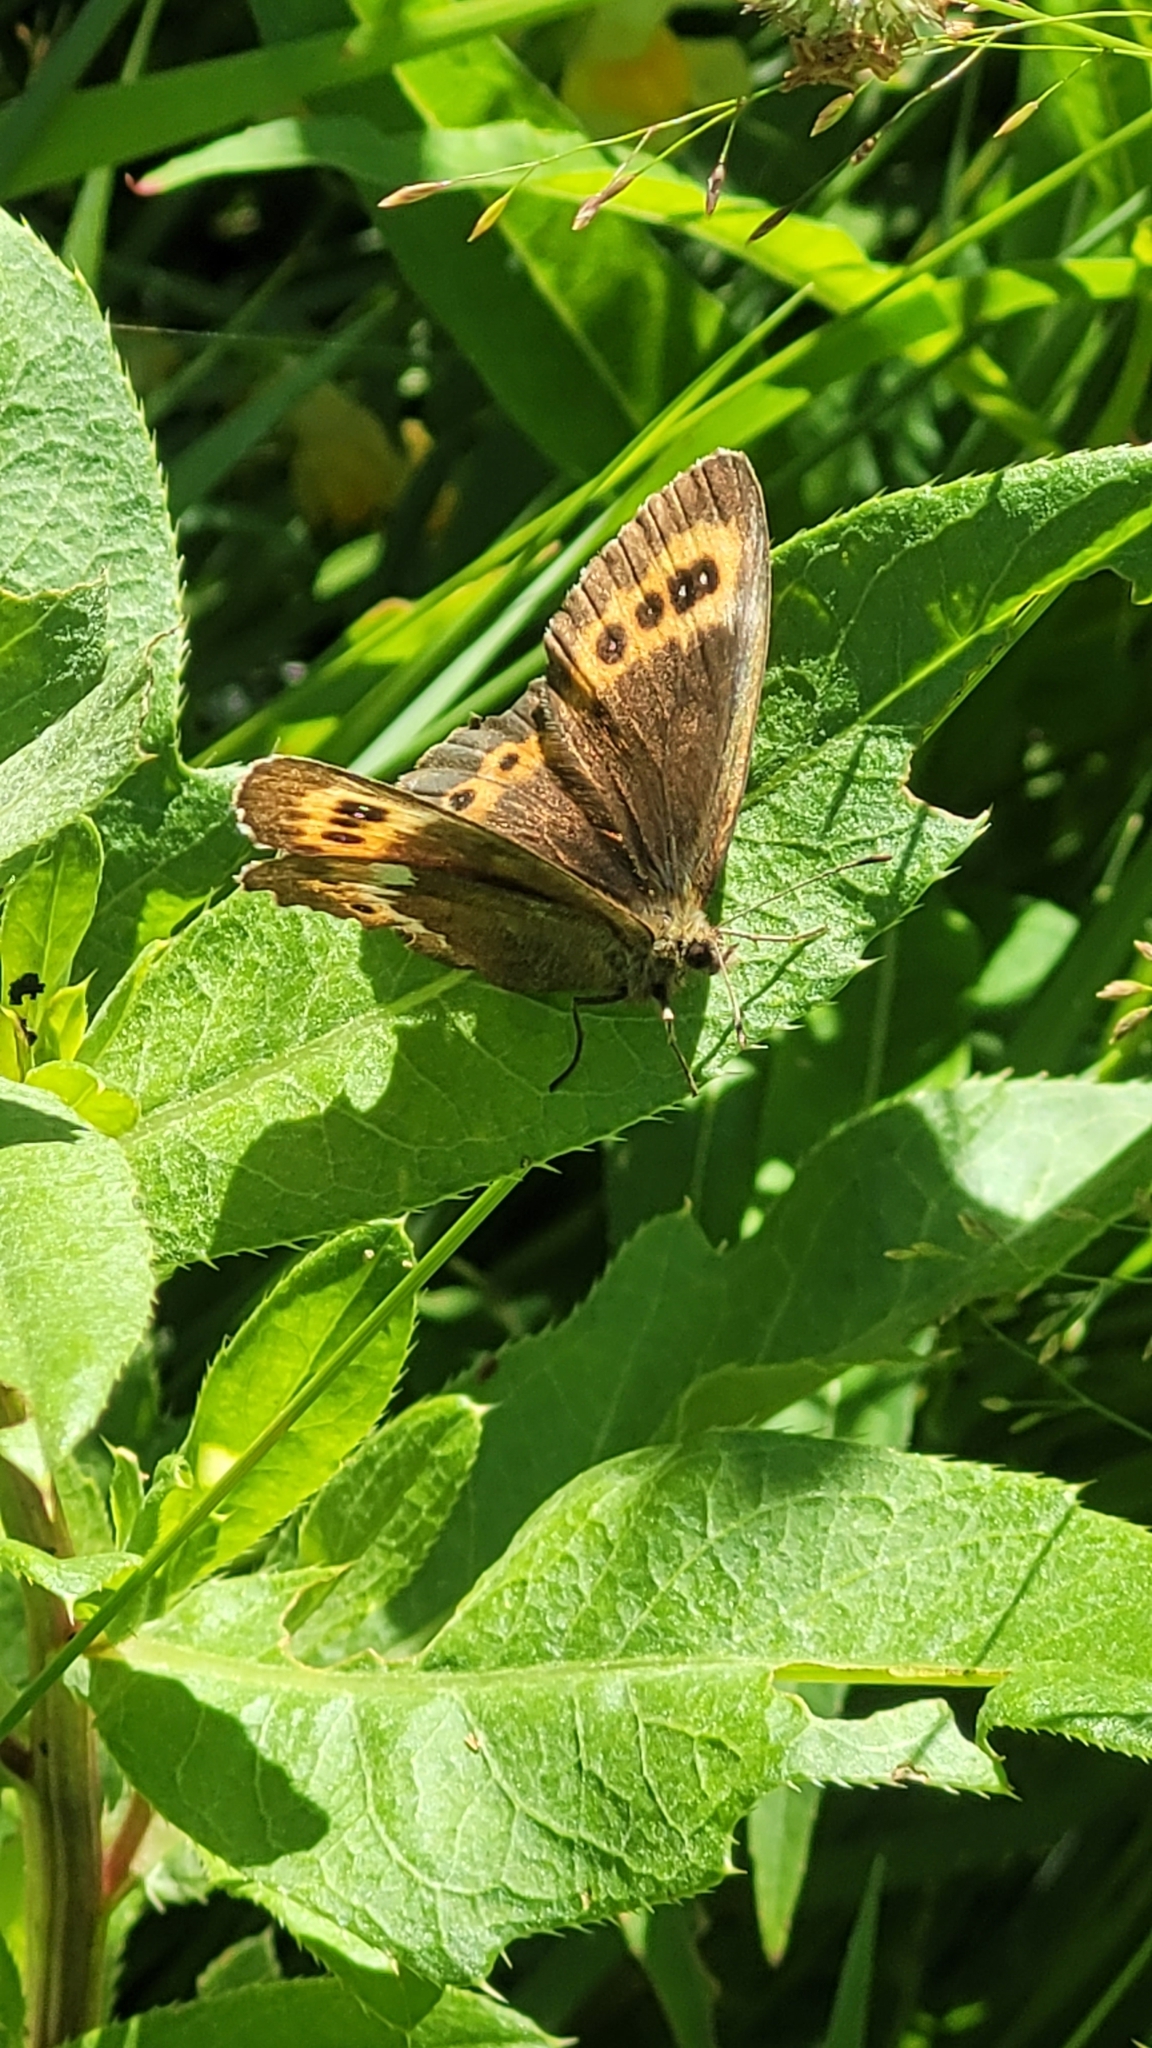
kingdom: Animalia
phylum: Arthropoda
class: Insecta
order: Lepidoptera
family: Nymphalidae
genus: Erebia
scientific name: Erebia ligea
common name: Arran brown
